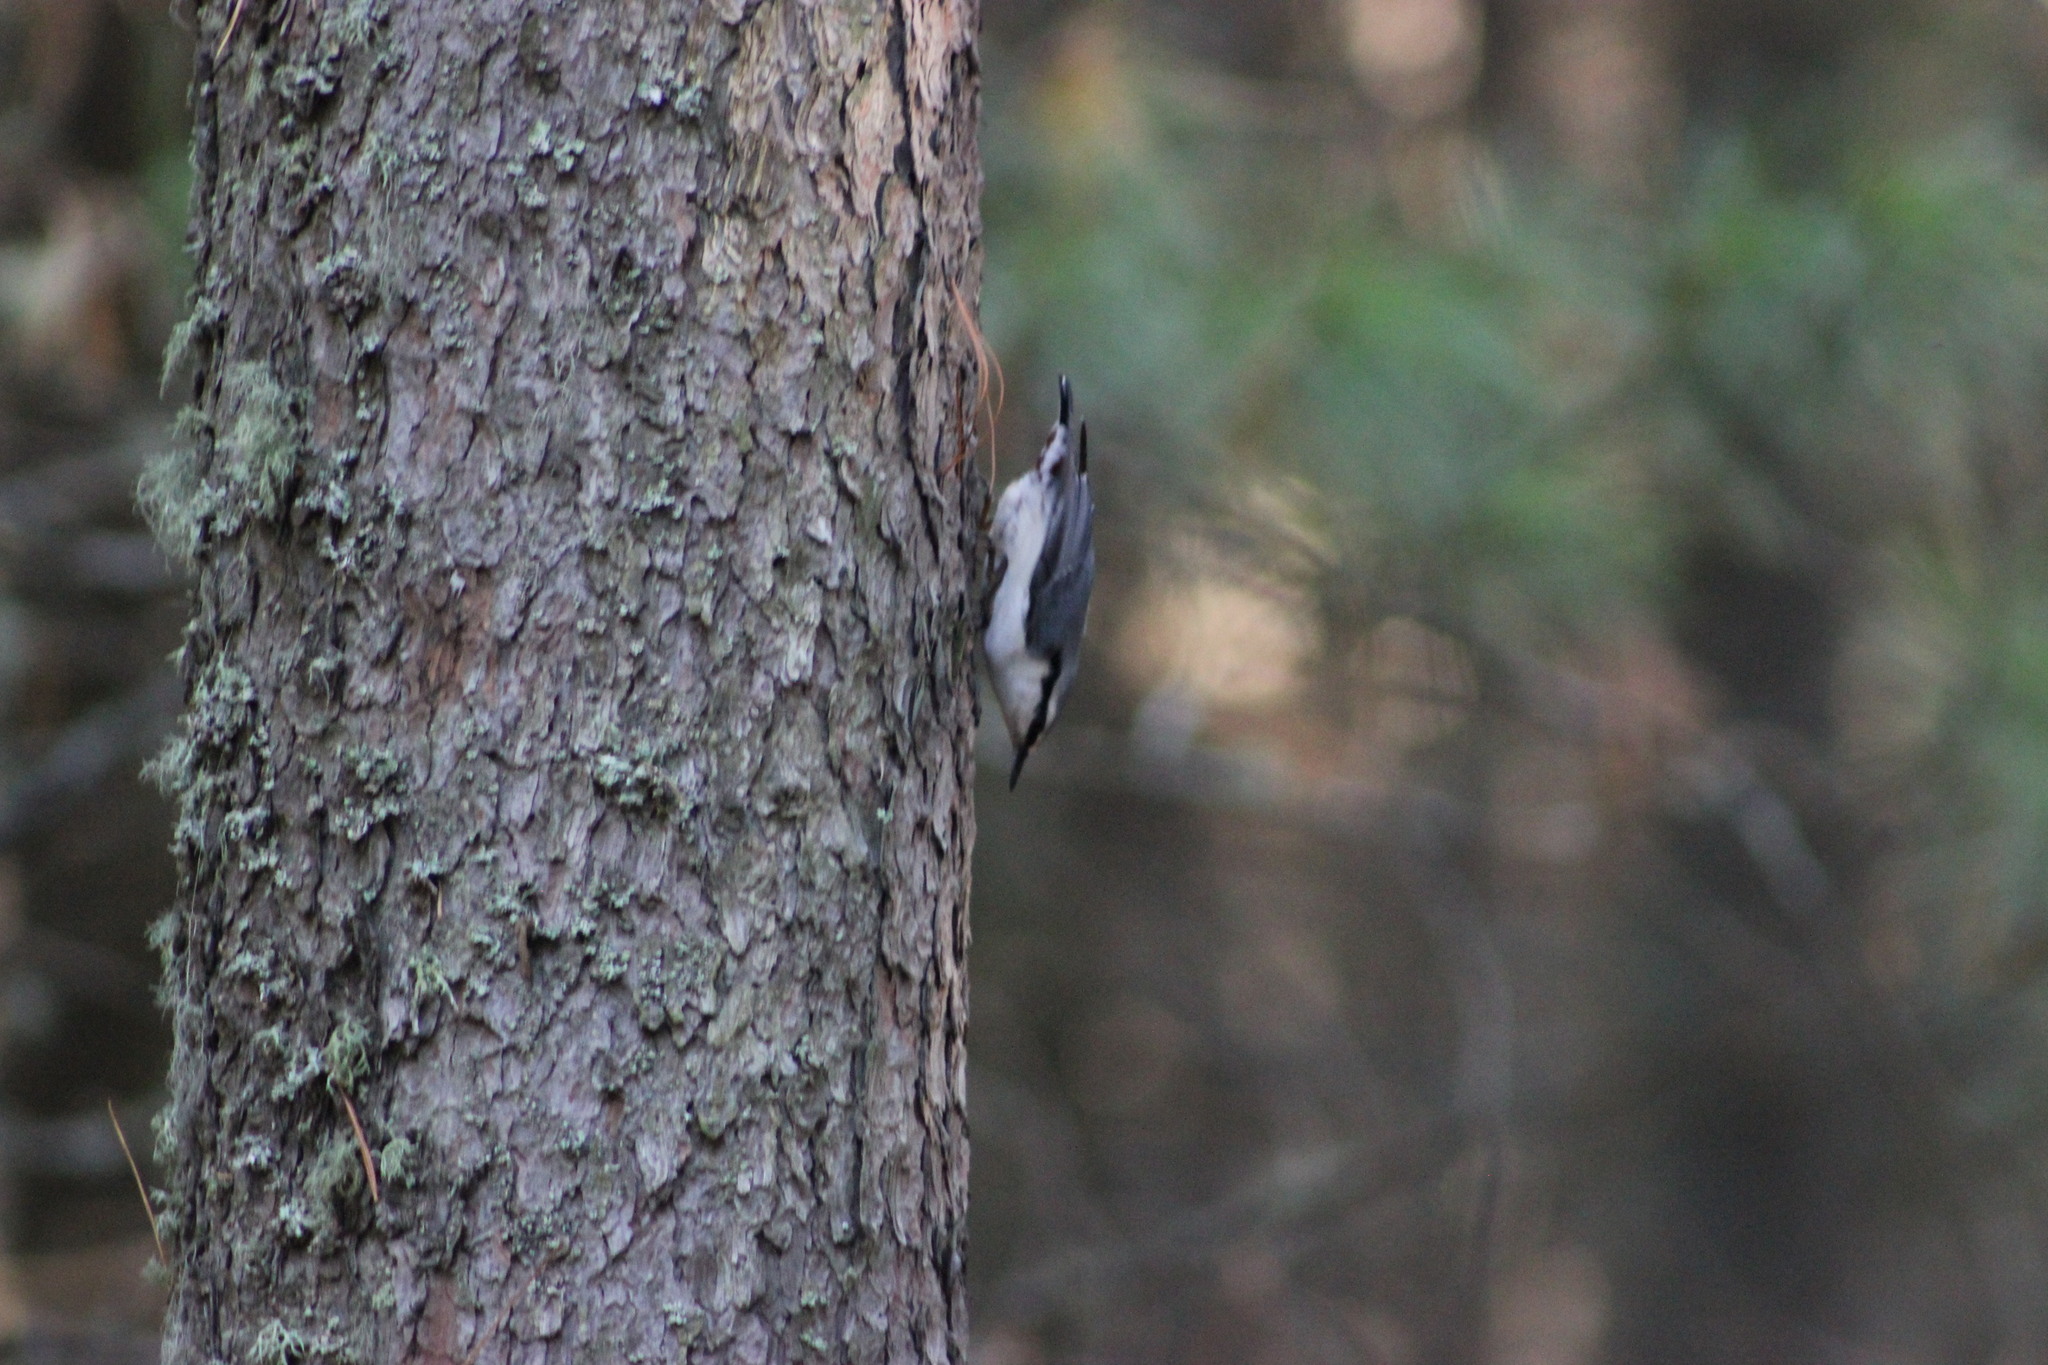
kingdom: Animalia
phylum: Chordata
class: Aves
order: Passeriformes
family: Sittidae
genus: Sitta
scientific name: Sitta europaea
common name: Eurasian nuthatch
